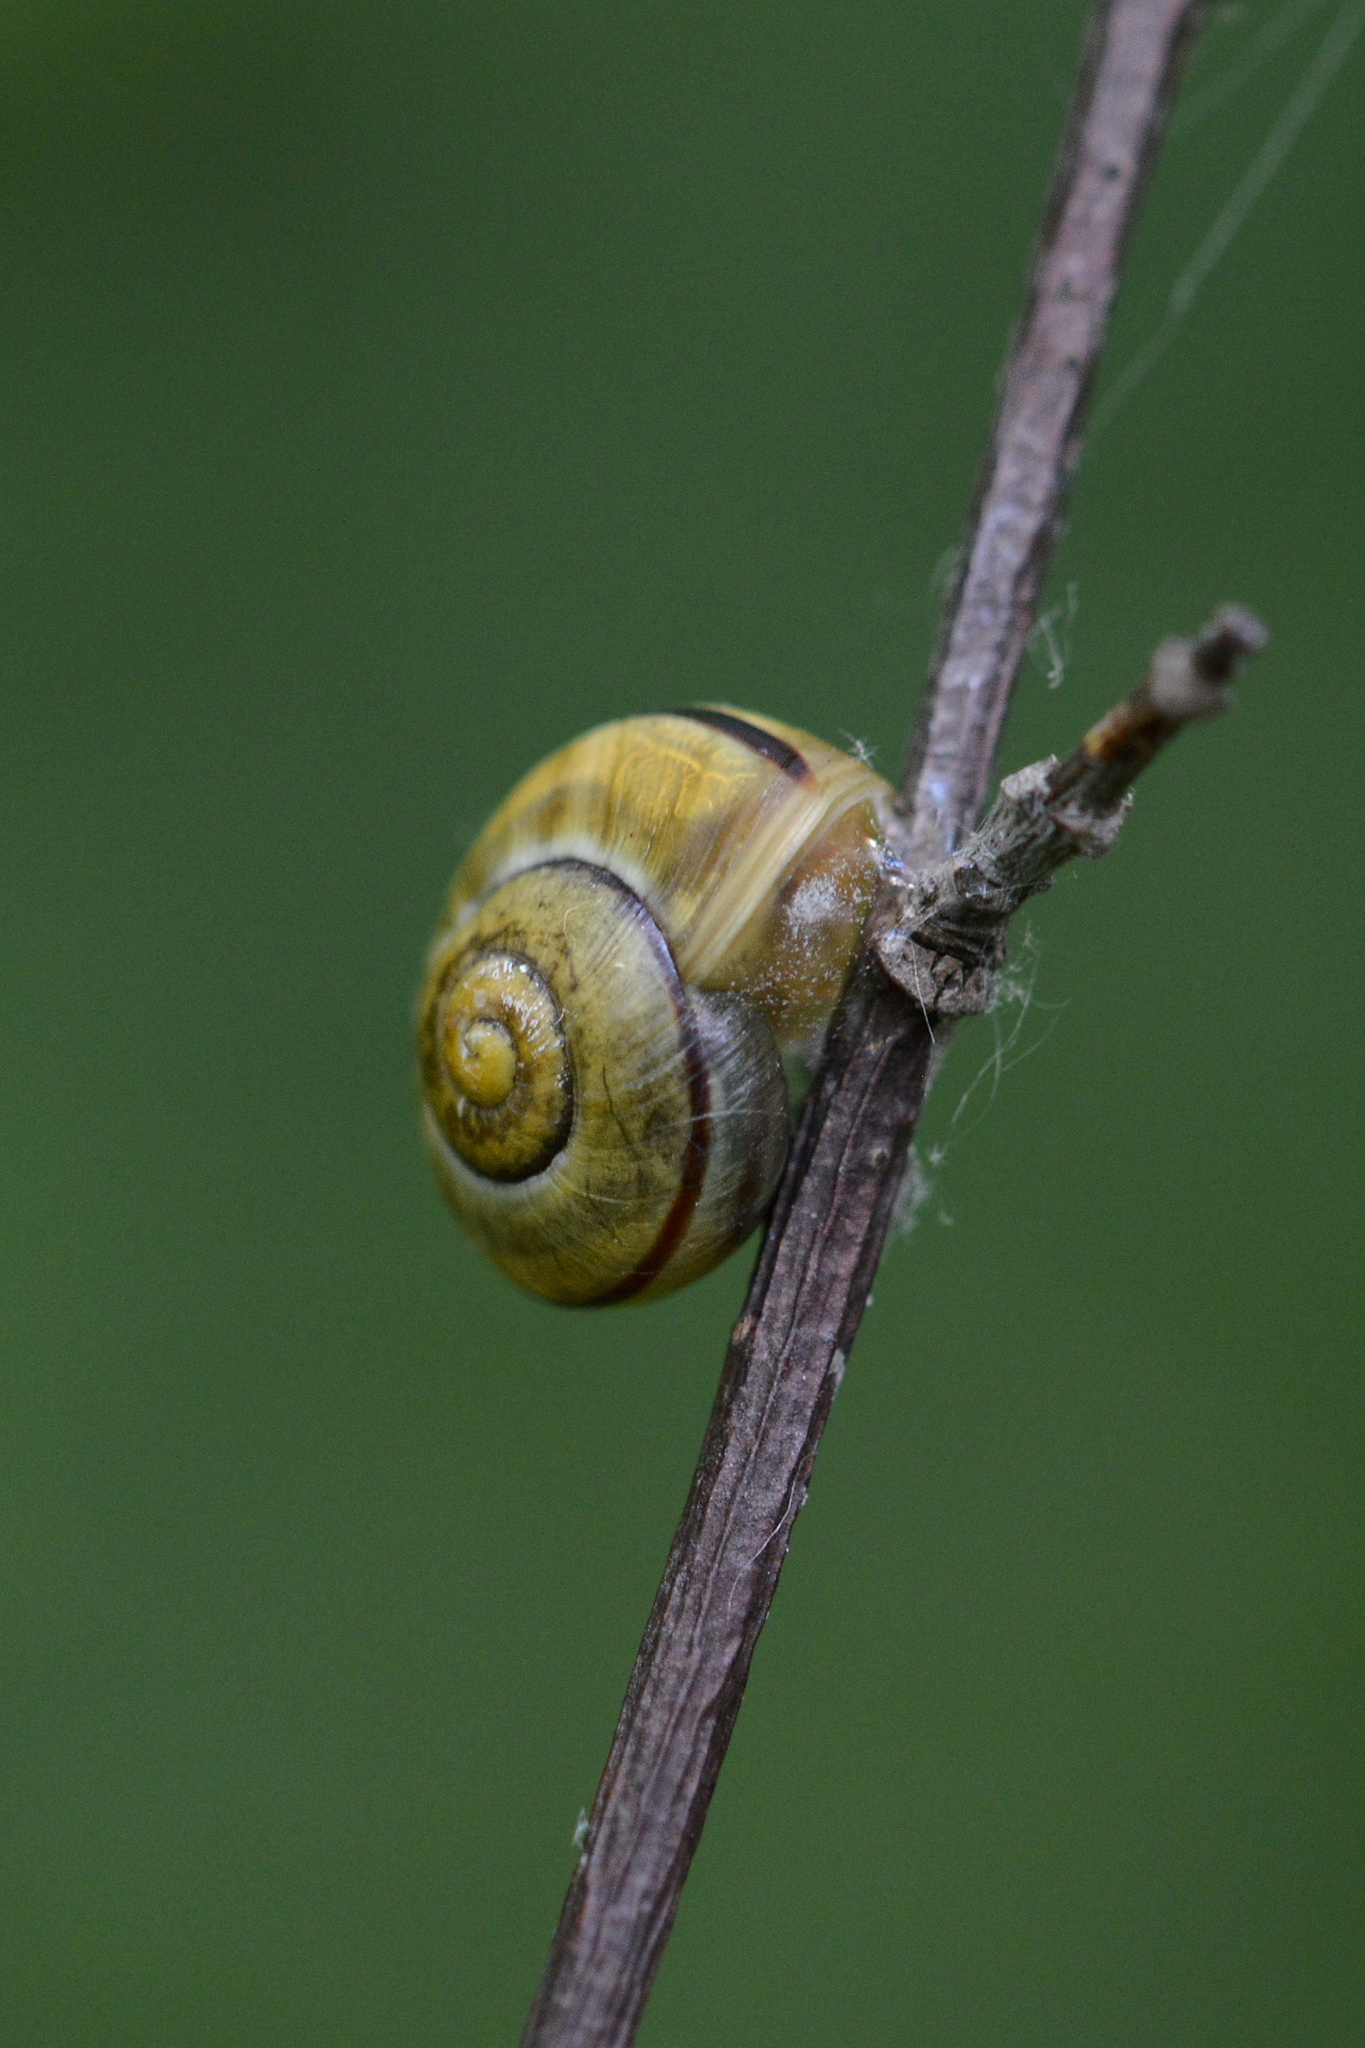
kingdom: Animalia
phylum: Mollusca
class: Gastropoda
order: Stylommatophora
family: Helicidae
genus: Cepaea
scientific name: Cepaea
